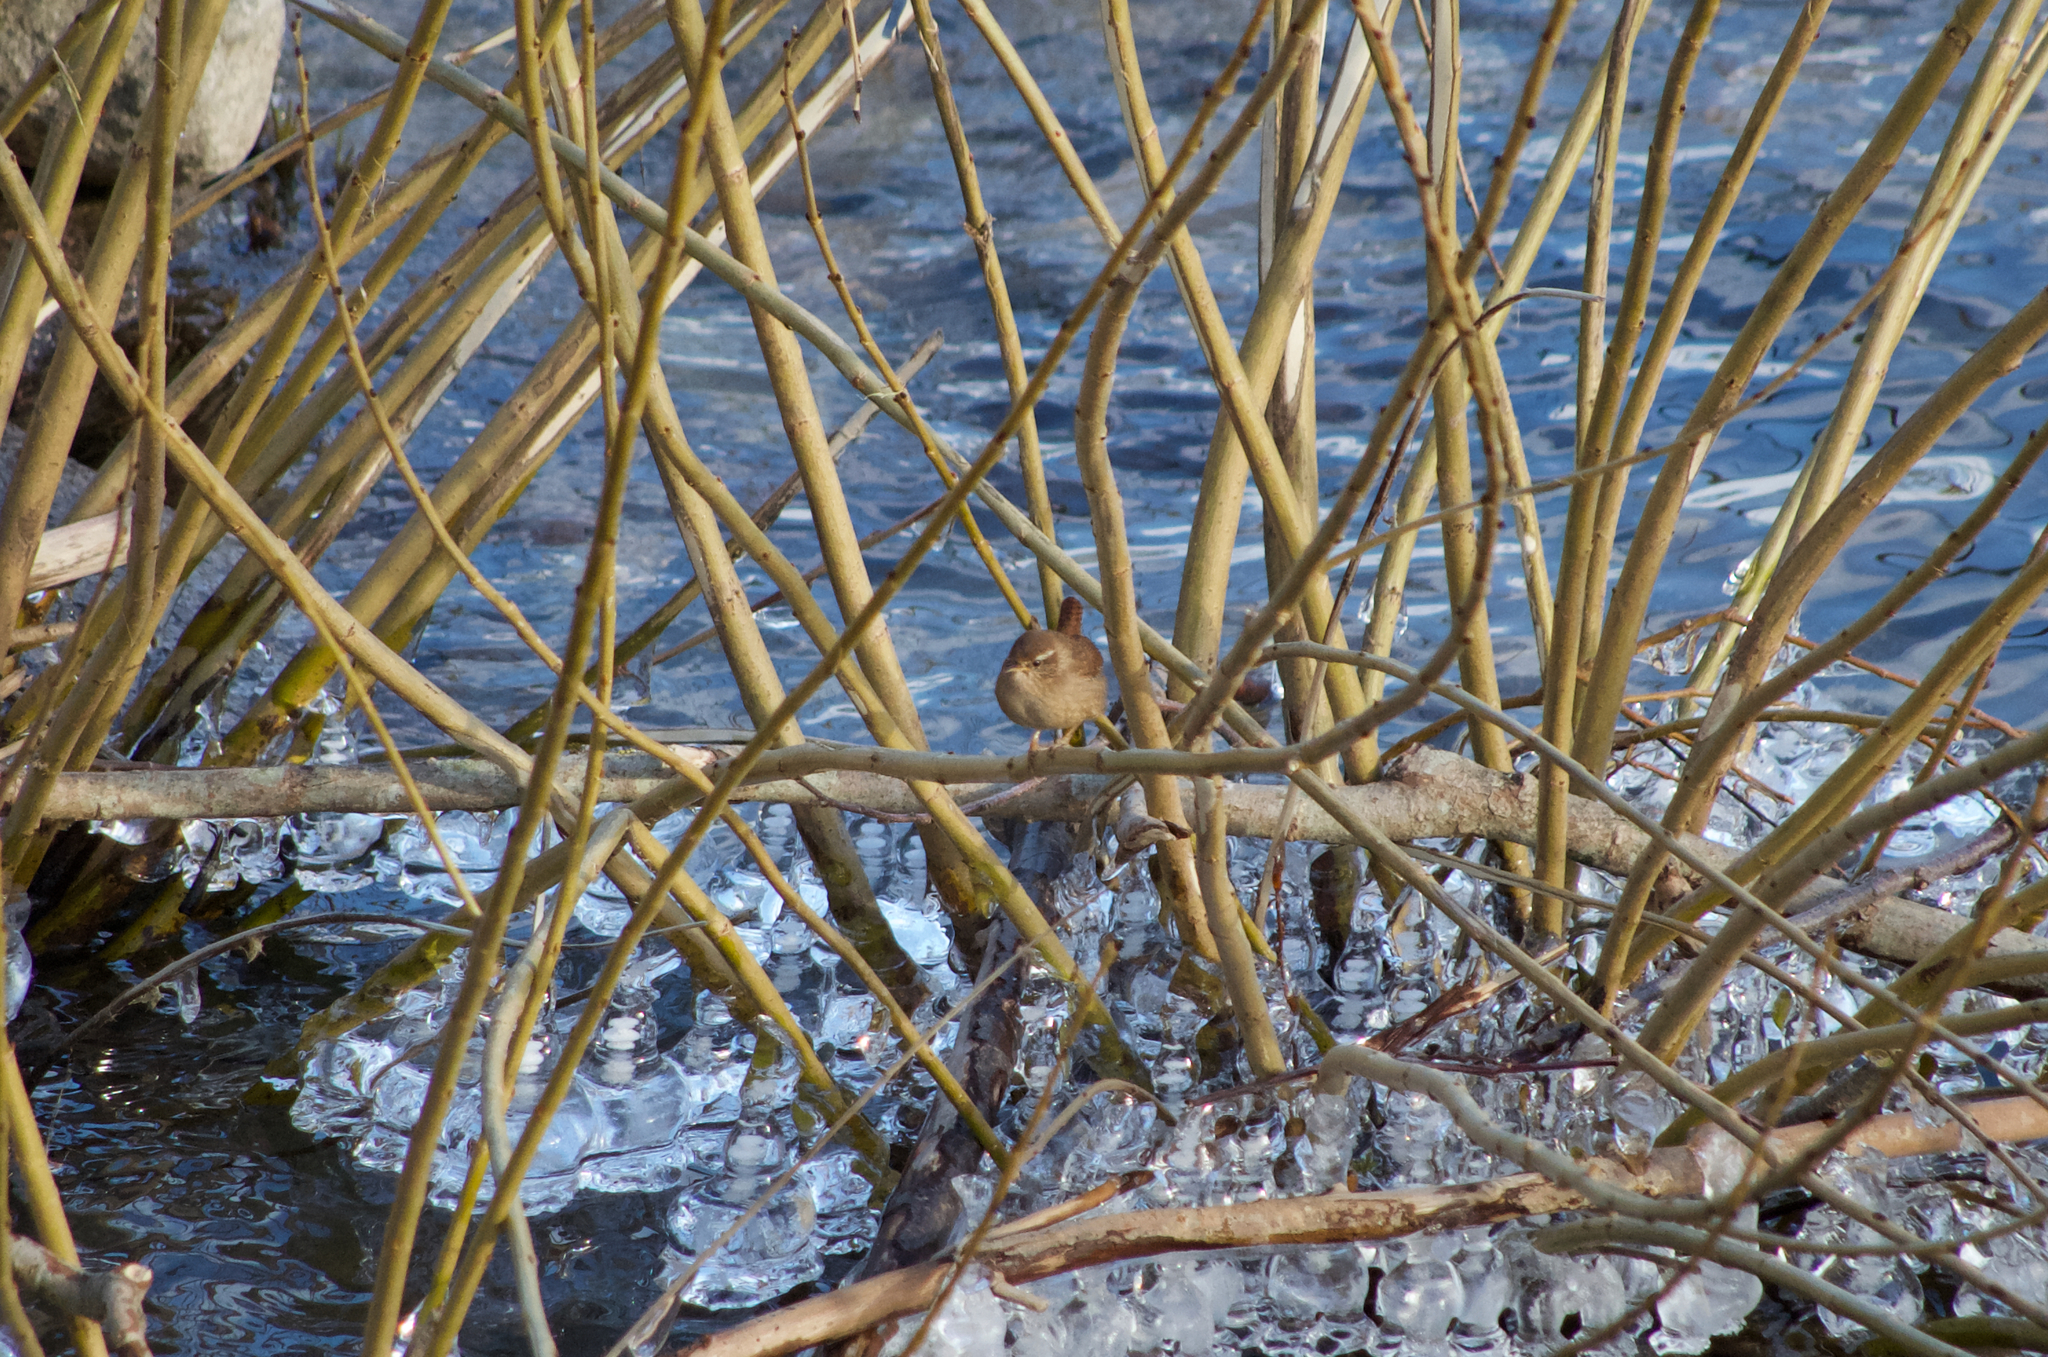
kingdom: Animalia
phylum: Chordata
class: Aves
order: Passeriformes
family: Troglodytidae
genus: Troglodytes
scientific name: Troglodytes troglodytes
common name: Eurasian wren
